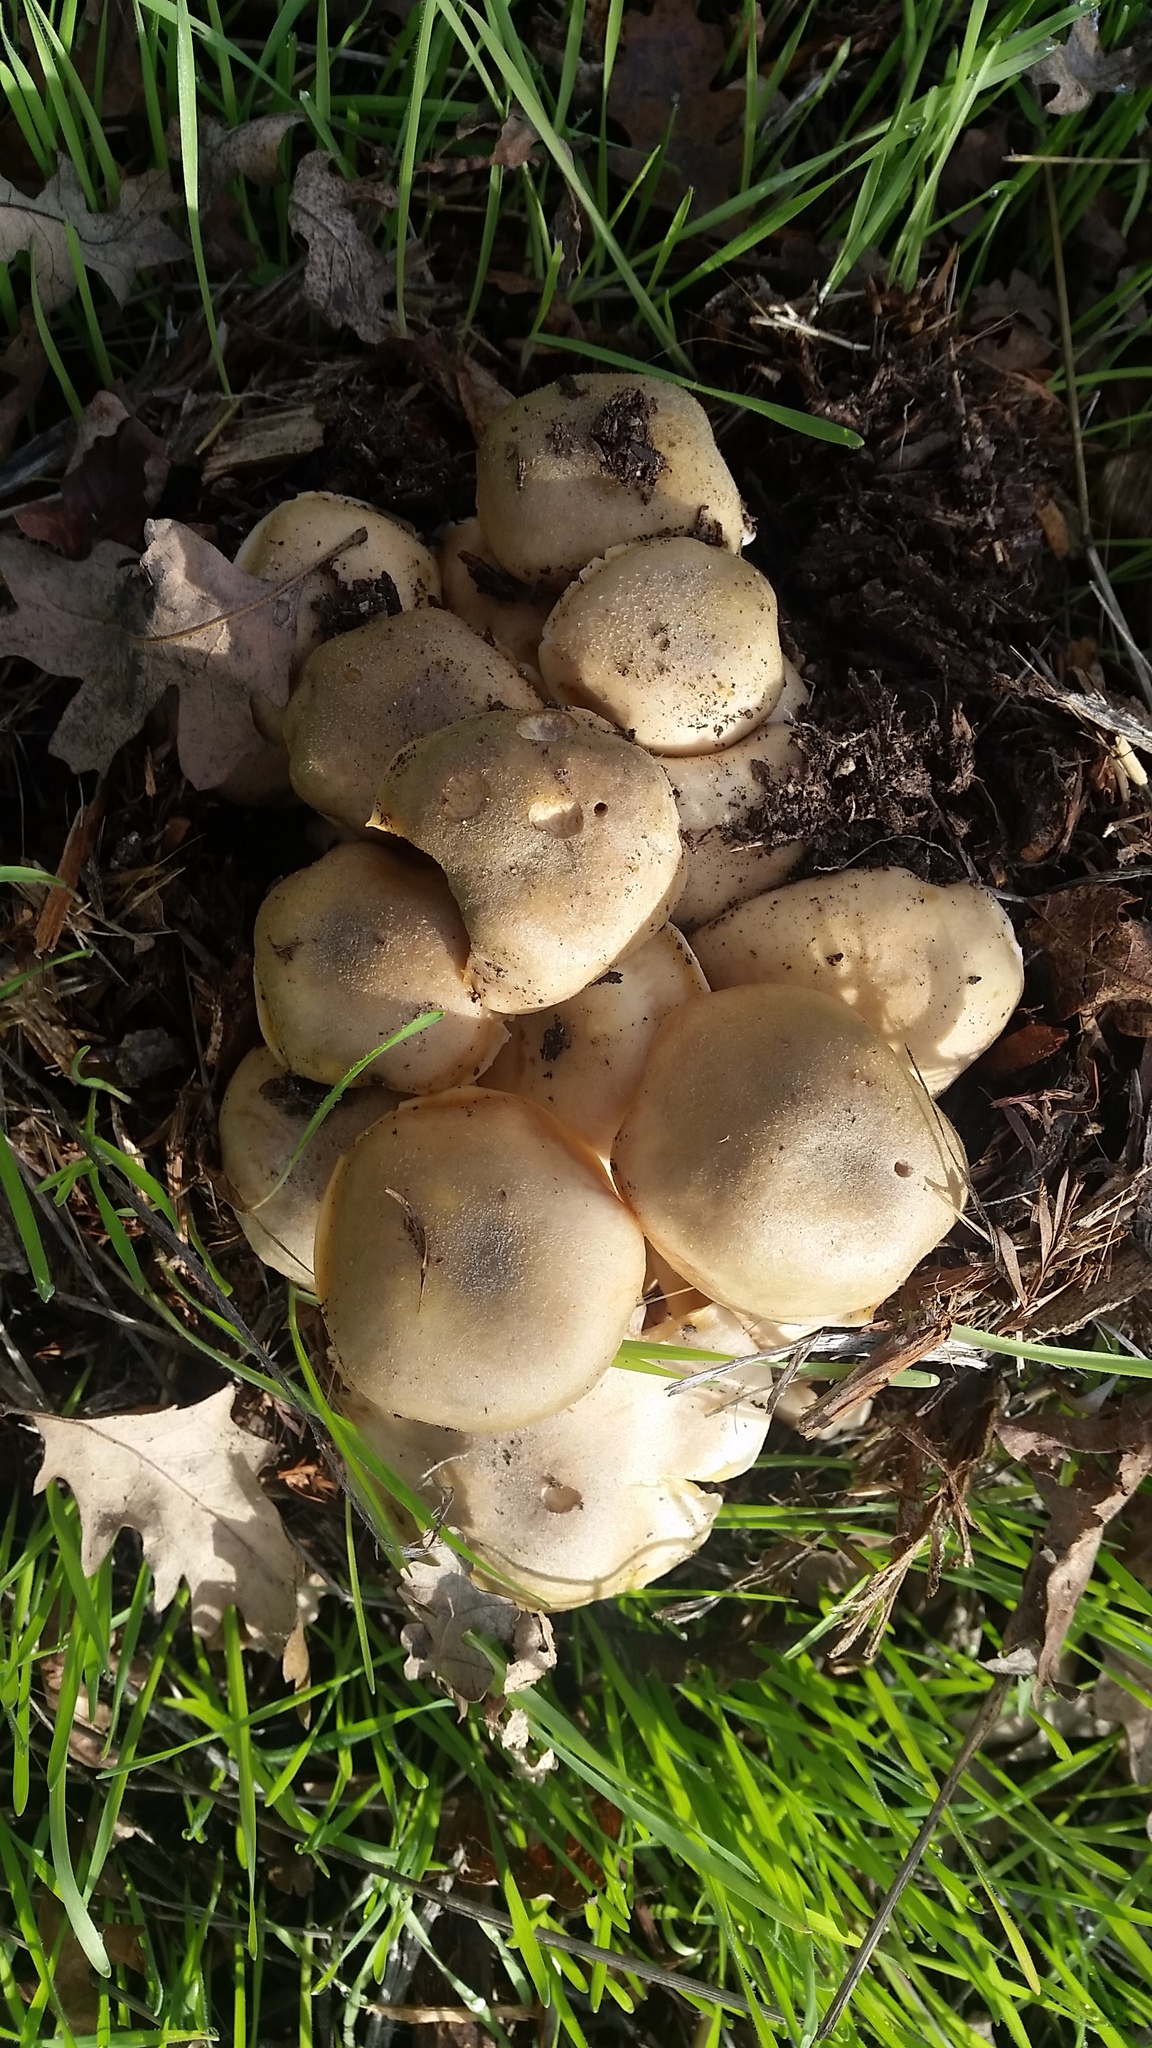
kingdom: Fungi
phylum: Basidiomycota
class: Agaricomycetes
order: Agaricales
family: Physalacriaceae
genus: Armillaria
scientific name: Armillaria mellea
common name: Honey fungus
